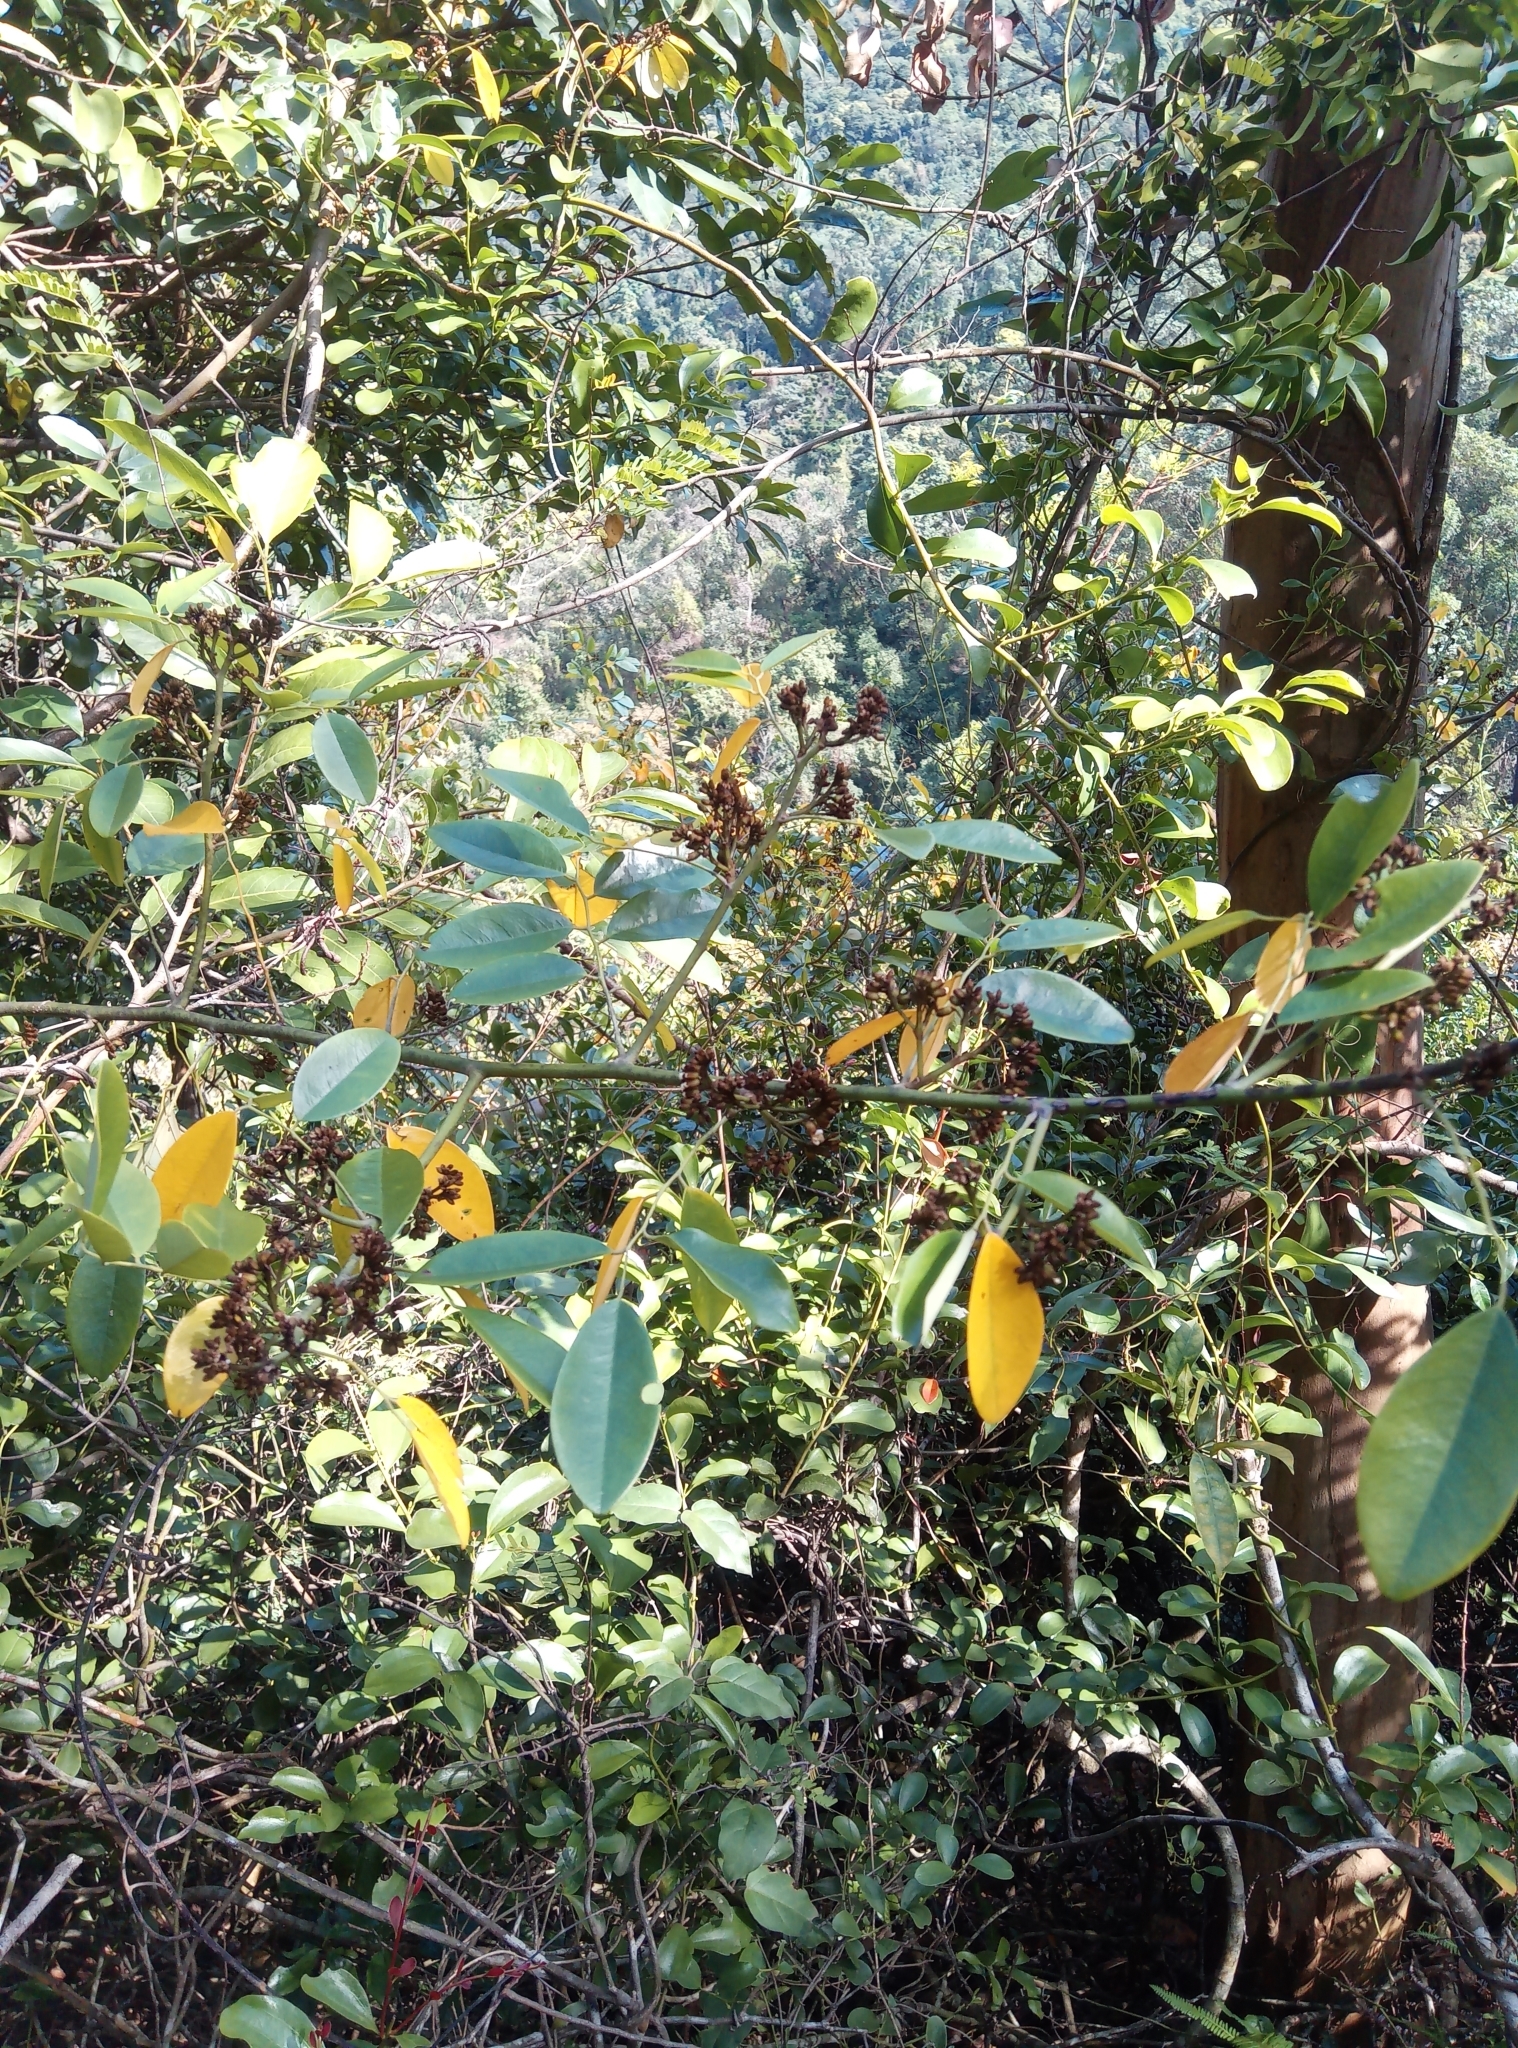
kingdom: Plantae
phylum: Tracheophyta
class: Magnoliopsida
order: Fabales
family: Fabaceae
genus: Dalbergia
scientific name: Dalbergia benthamii
